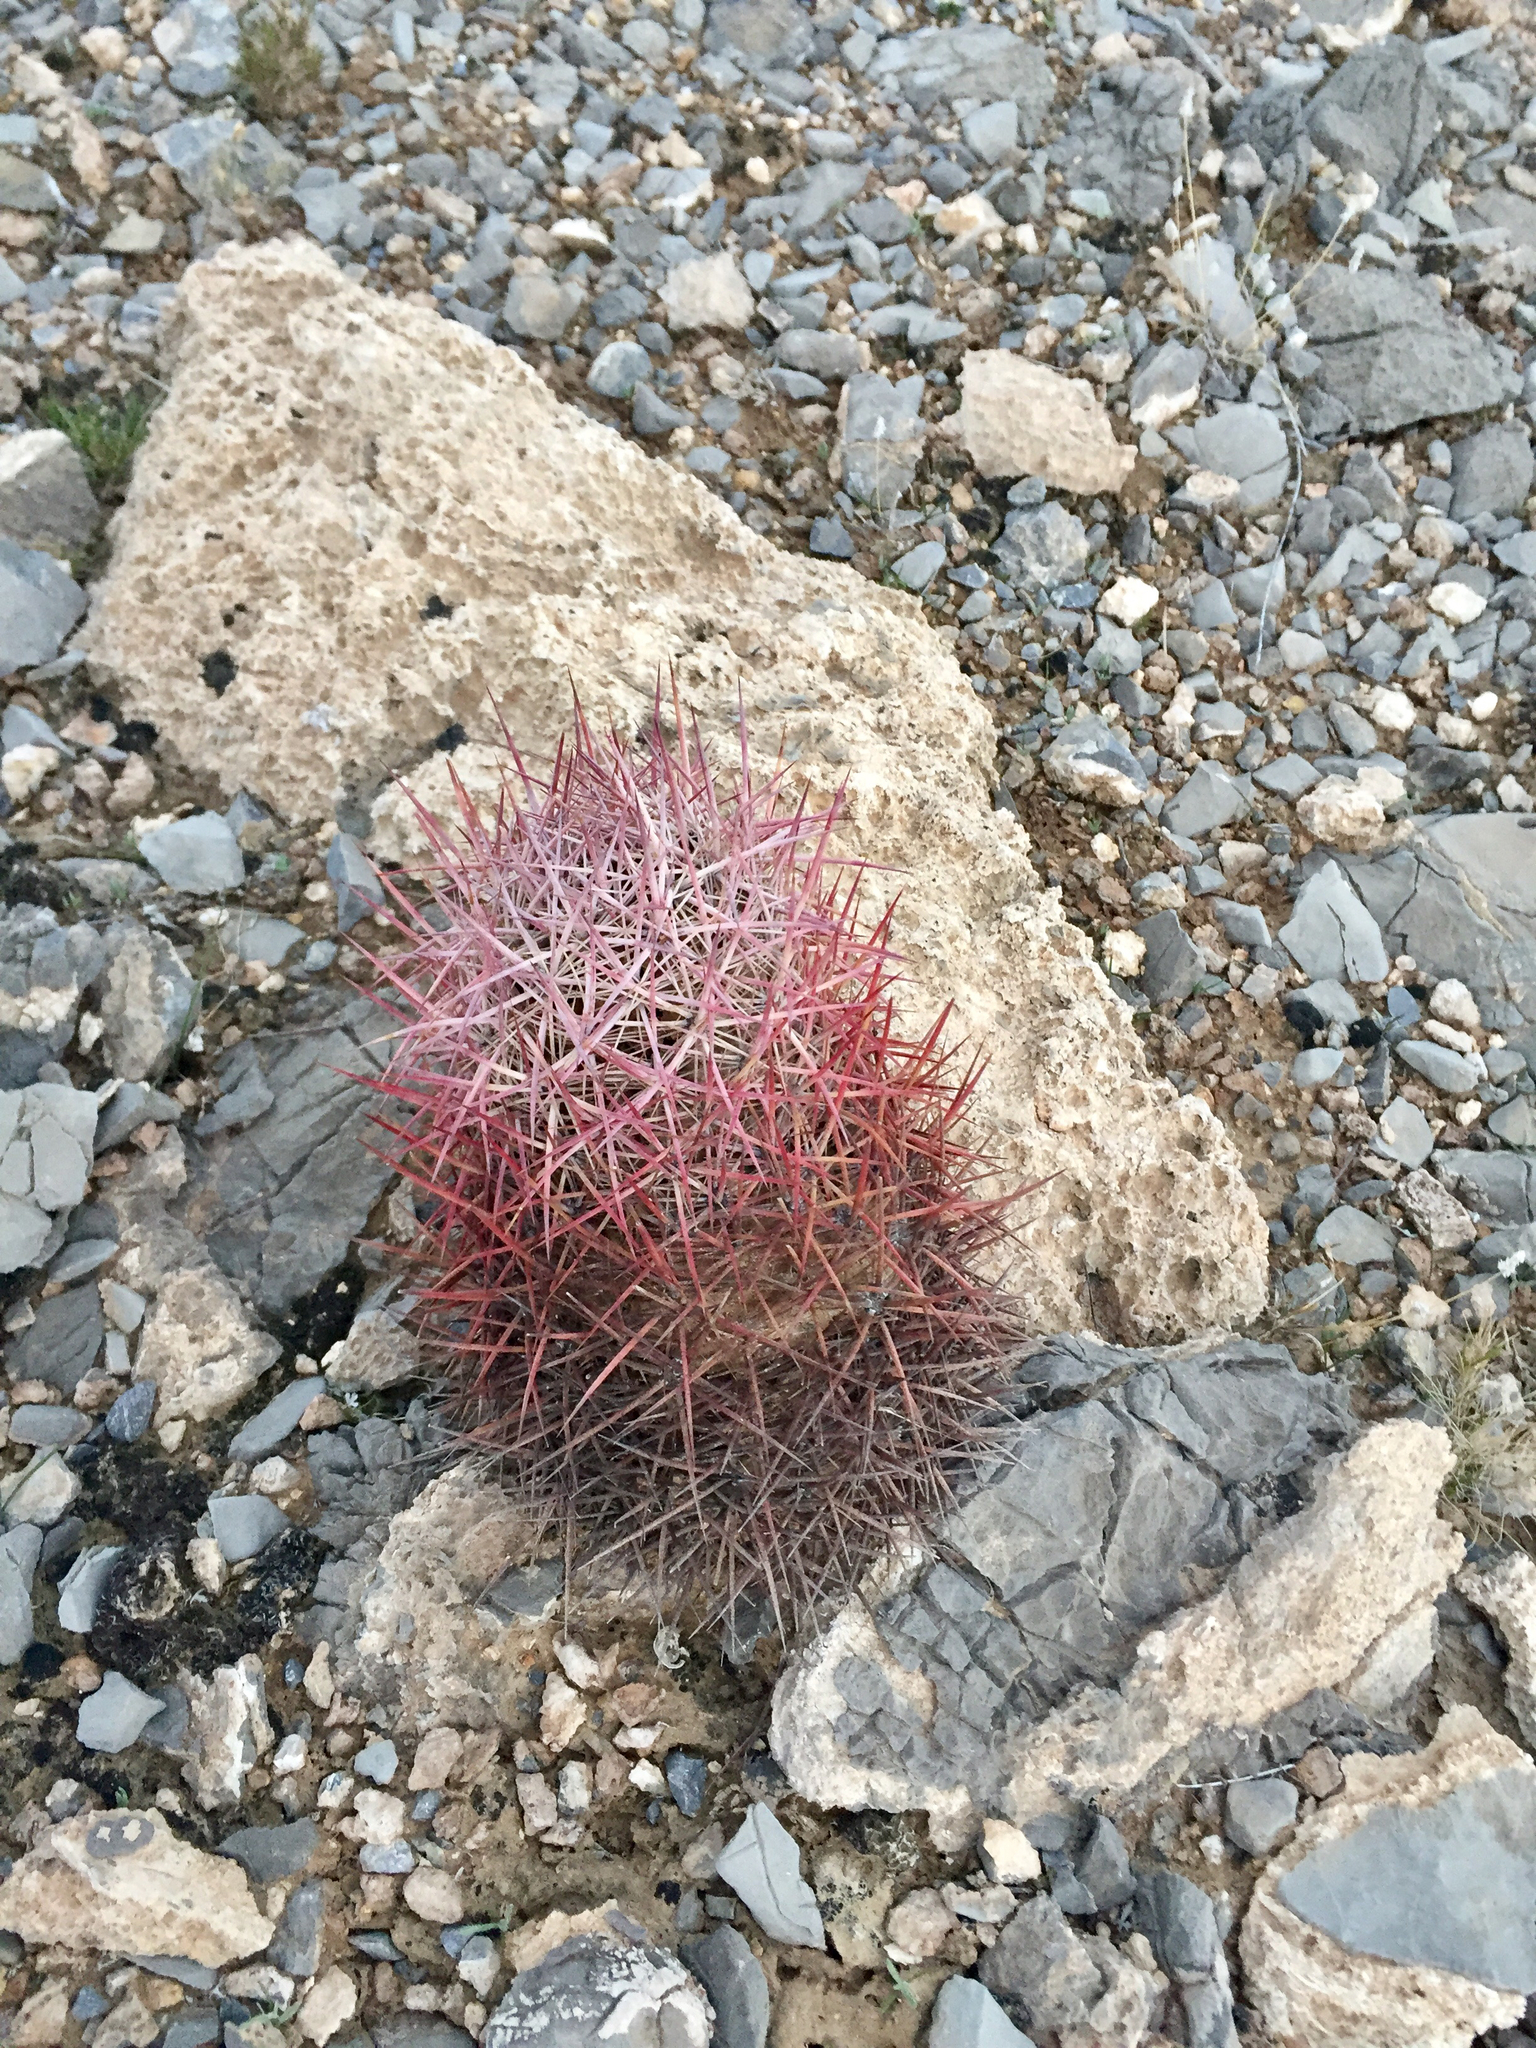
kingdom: Plantae
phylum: Tracheophyta
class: Magnoliopsida
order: Caryophyllales
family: Cactaceae
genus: Sclerocactus
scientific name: Sclerocactus johnsonii
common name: Eight-spine fishhook cactus
